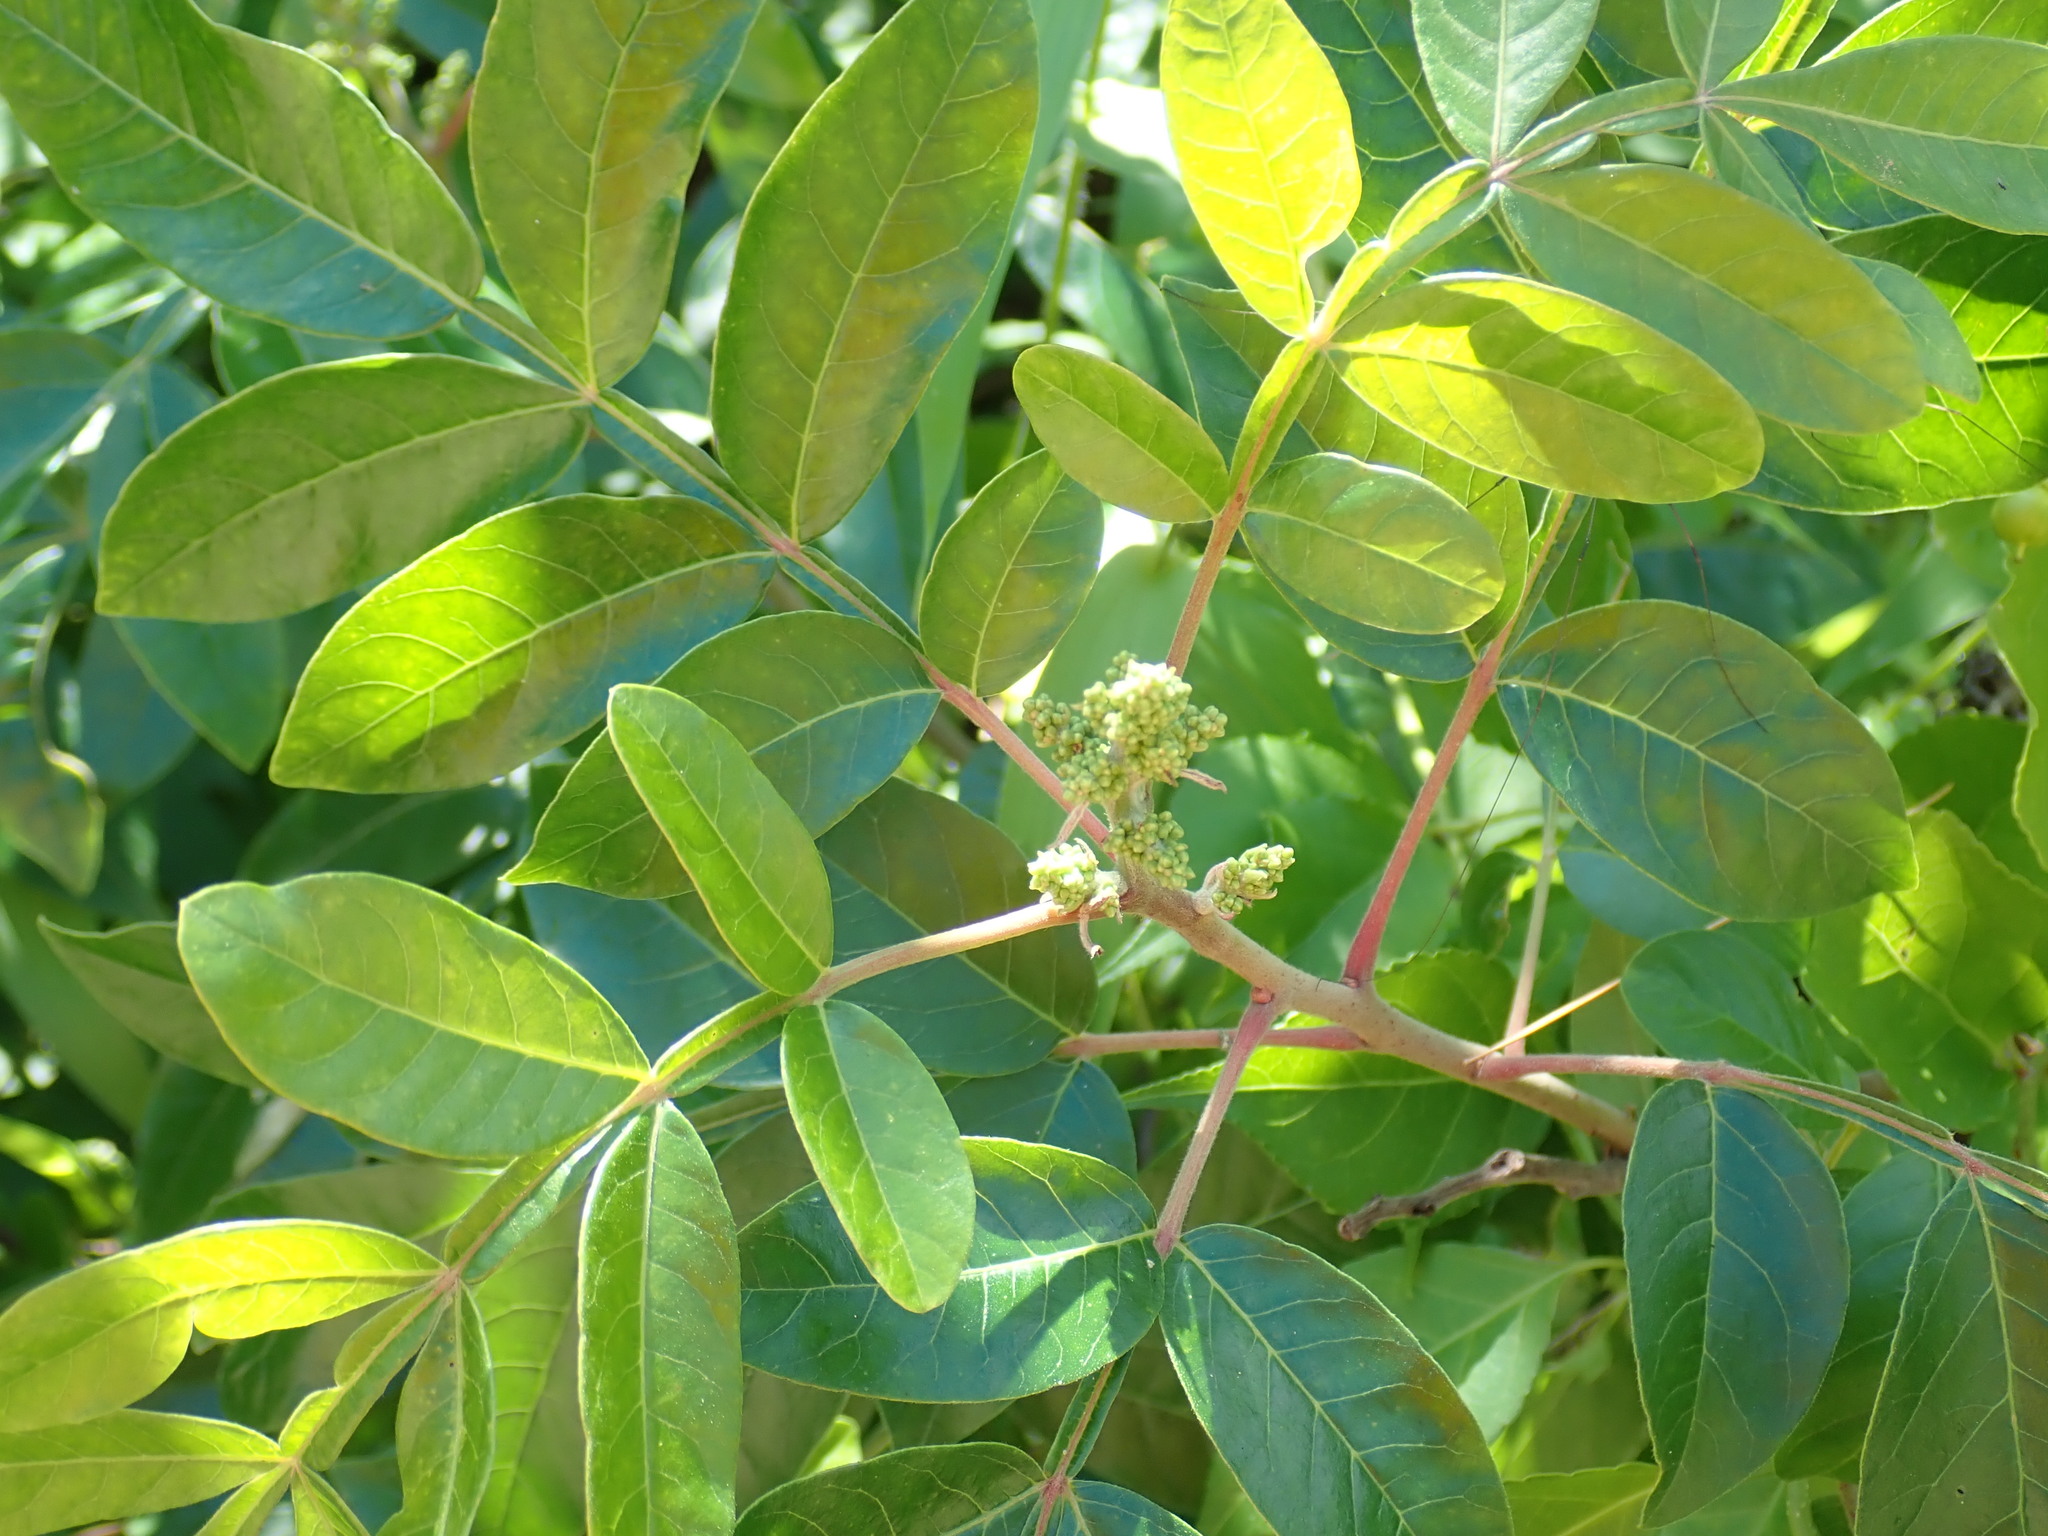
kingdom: Plantae
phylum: Tracheophyta
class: Magnoliopsida
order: Sapindales
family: Anacardiaceae
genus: Rhus
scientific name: Rhus copallina
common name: Shining sumac
